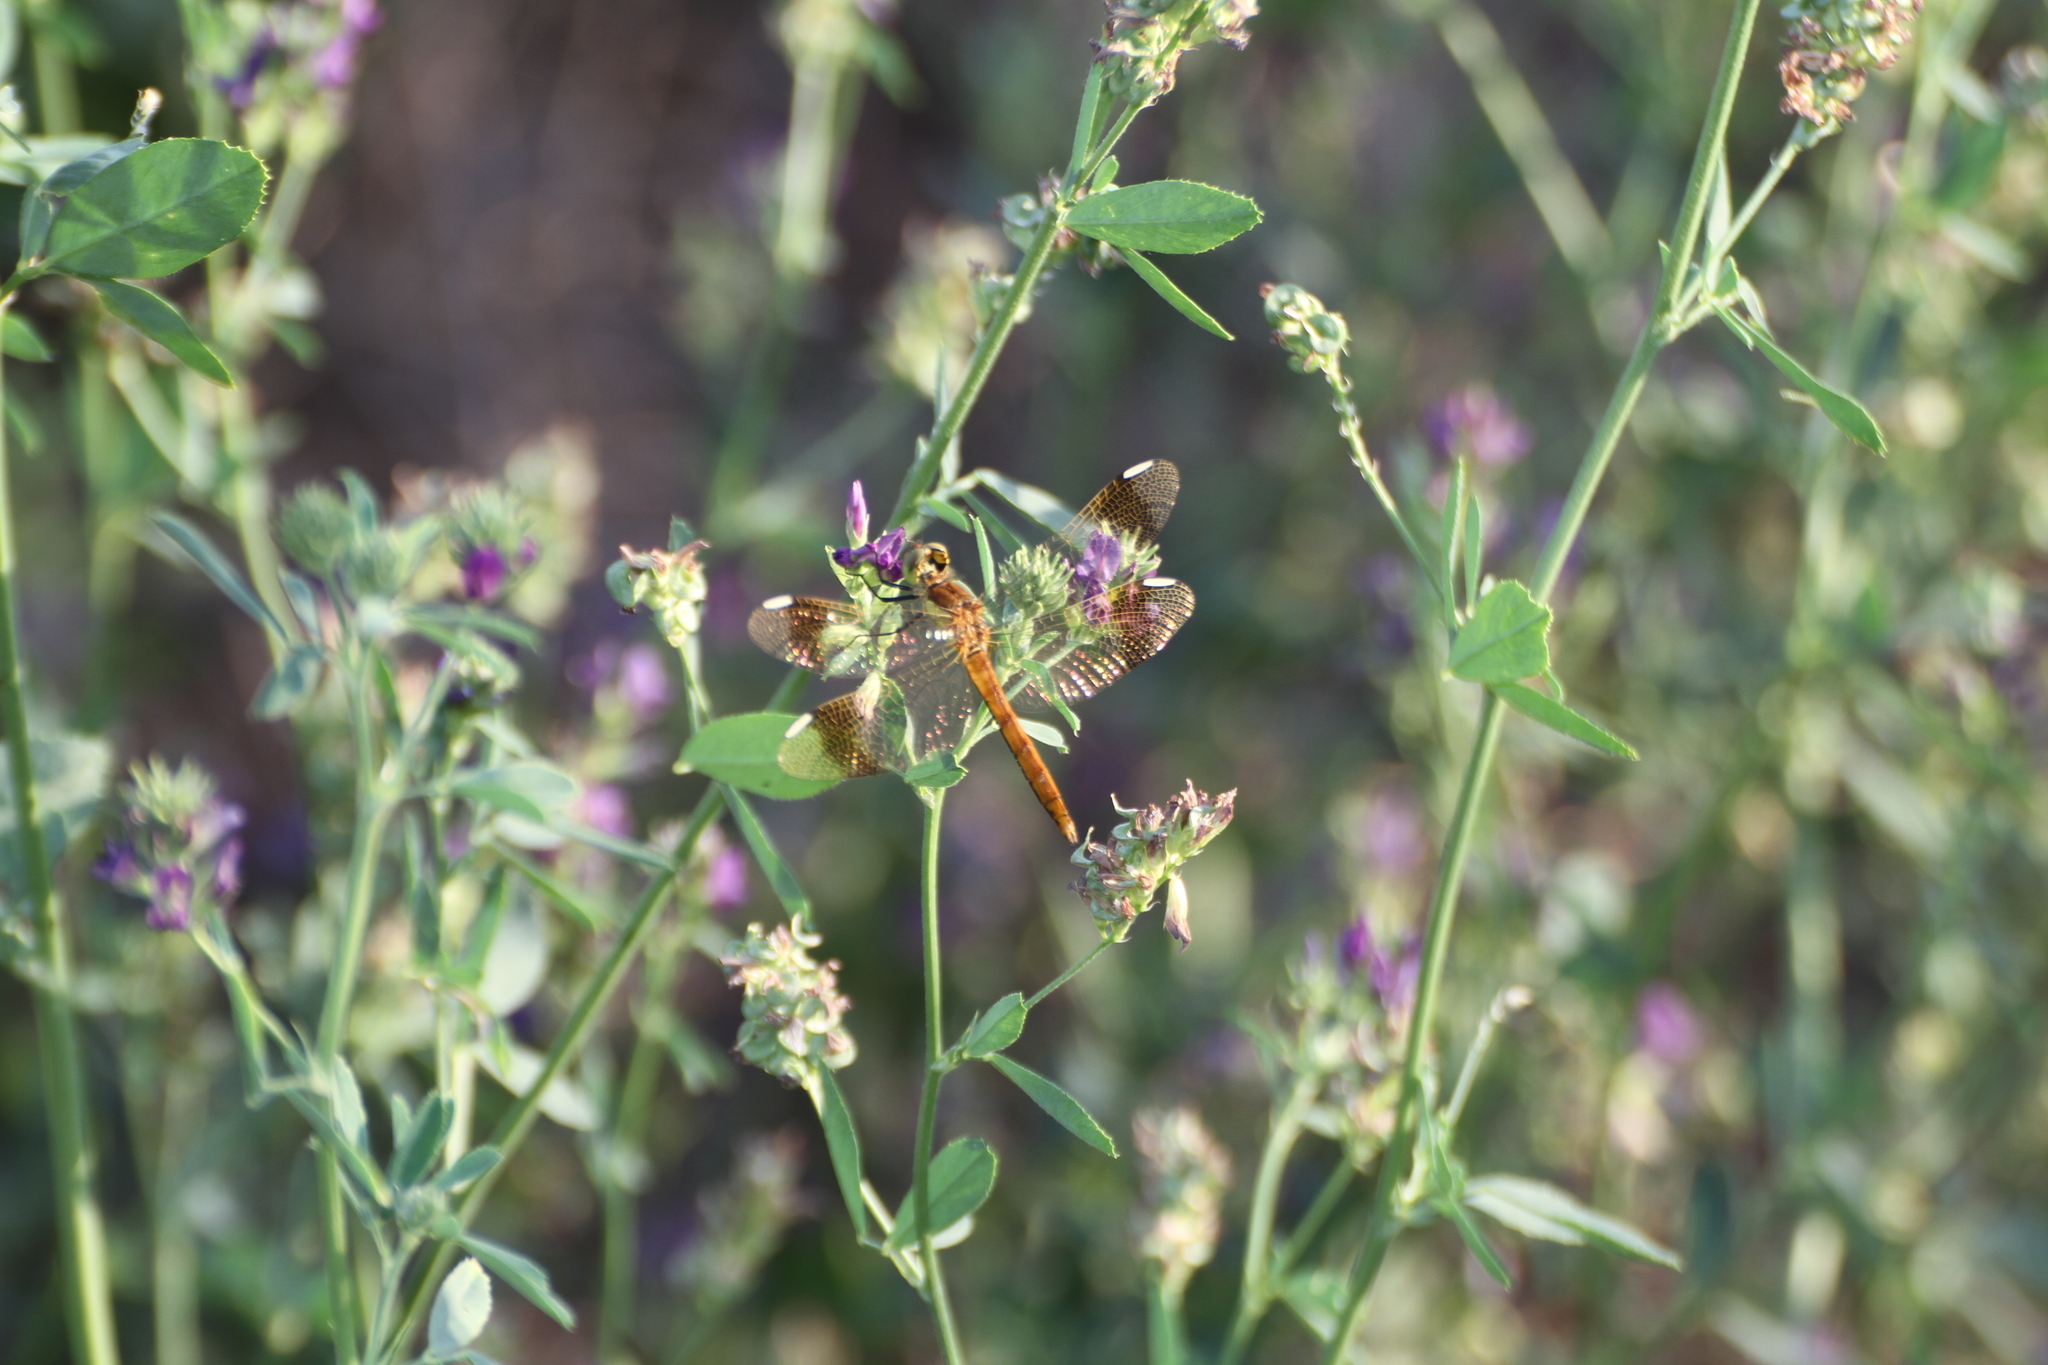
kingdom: Animalia
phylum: Arthropoda
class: Insecta
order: Odonata
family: Libellulidae
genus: Sympetrum
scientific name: Sympetrum pedemontanum
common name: Banded darter
